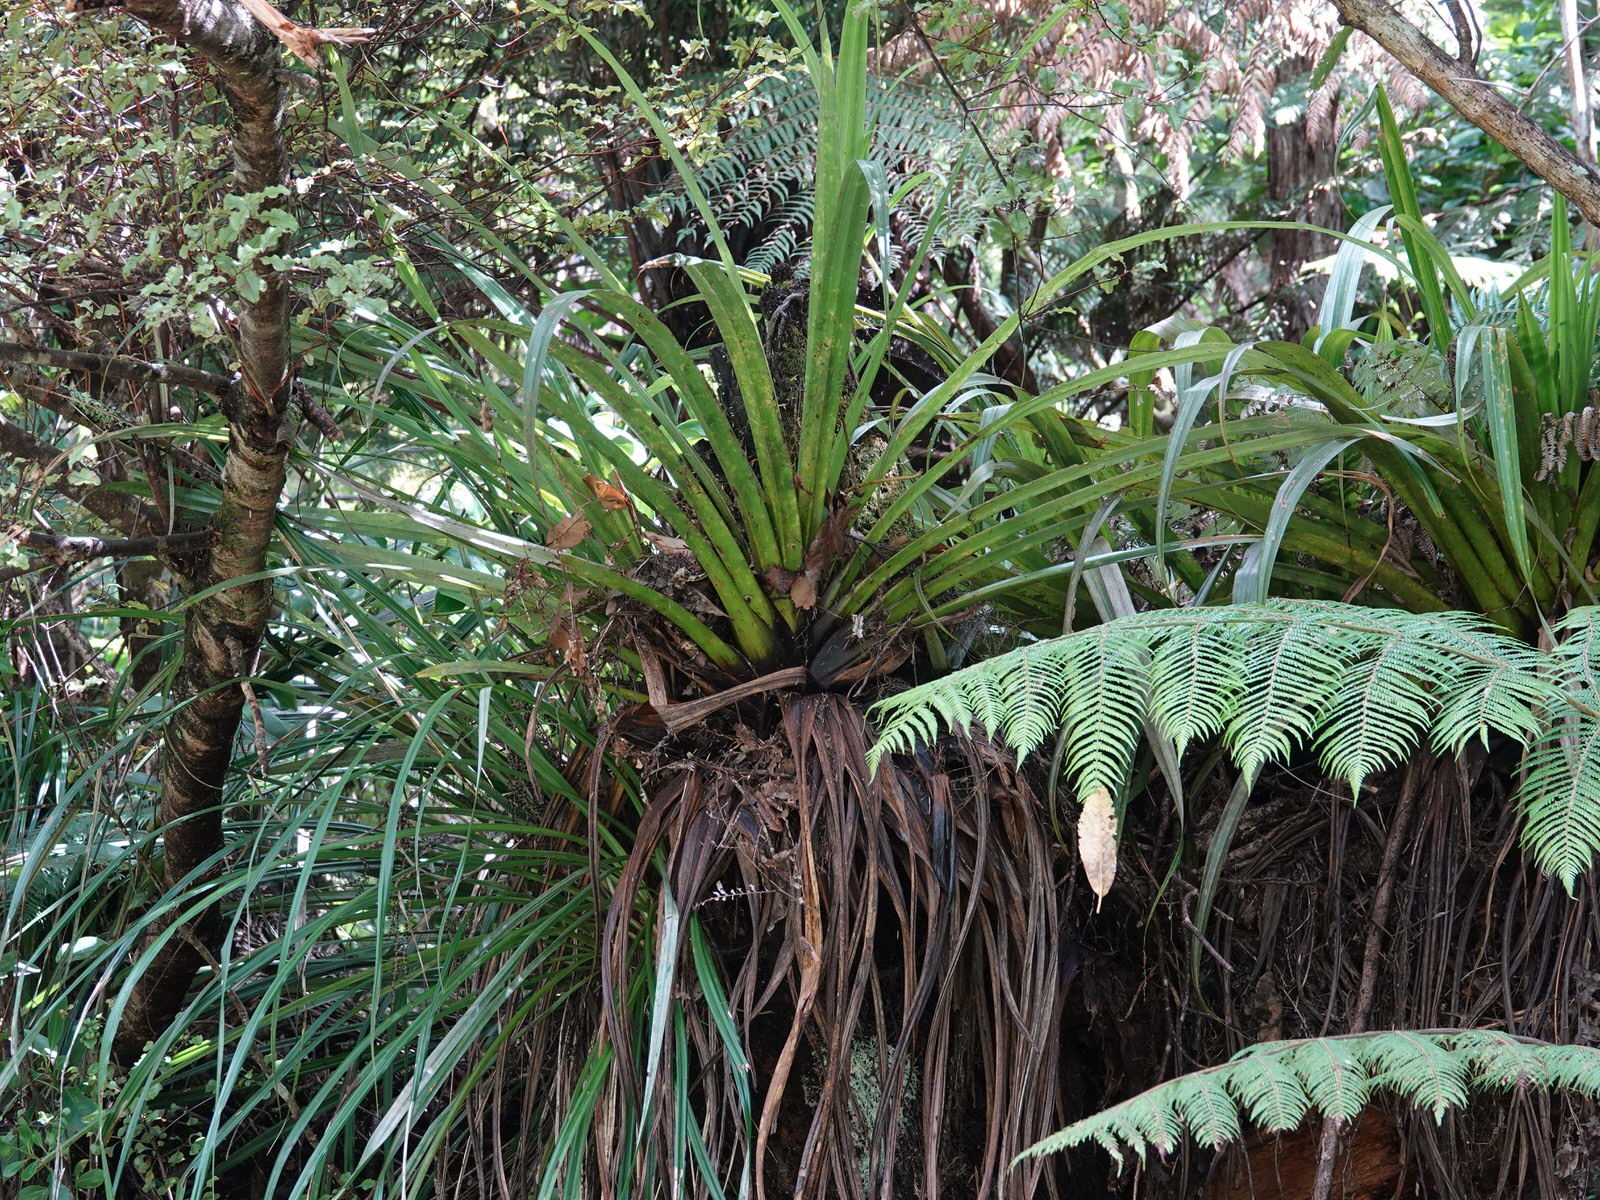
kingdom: Plantae
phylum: Tracheophyta
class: Liliopsida
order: Asparagales
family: Asteliaceae
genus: Astelia
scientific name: Astelia hastata
